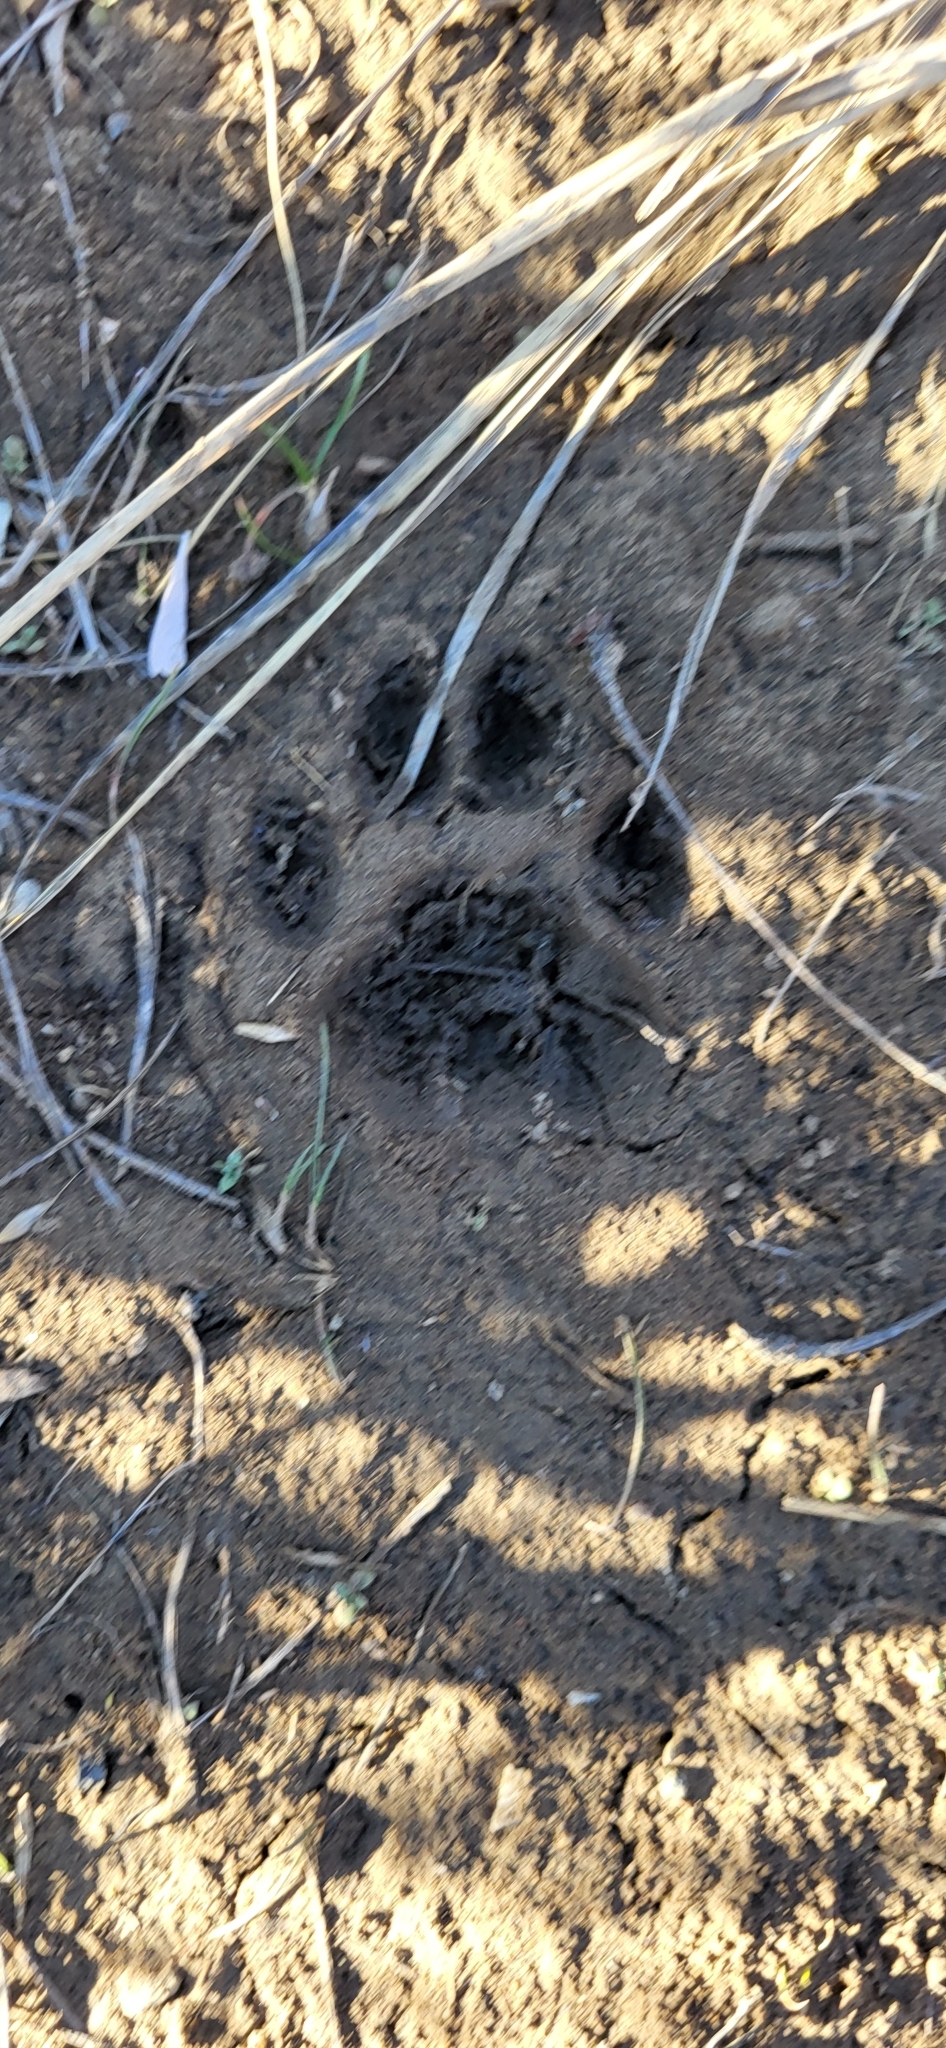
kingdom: Animalia
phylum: Chordata
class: Mammalia
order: Carnivora
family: Felidae
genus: Lynx
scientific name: Lynx rufus
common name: Bobcat
